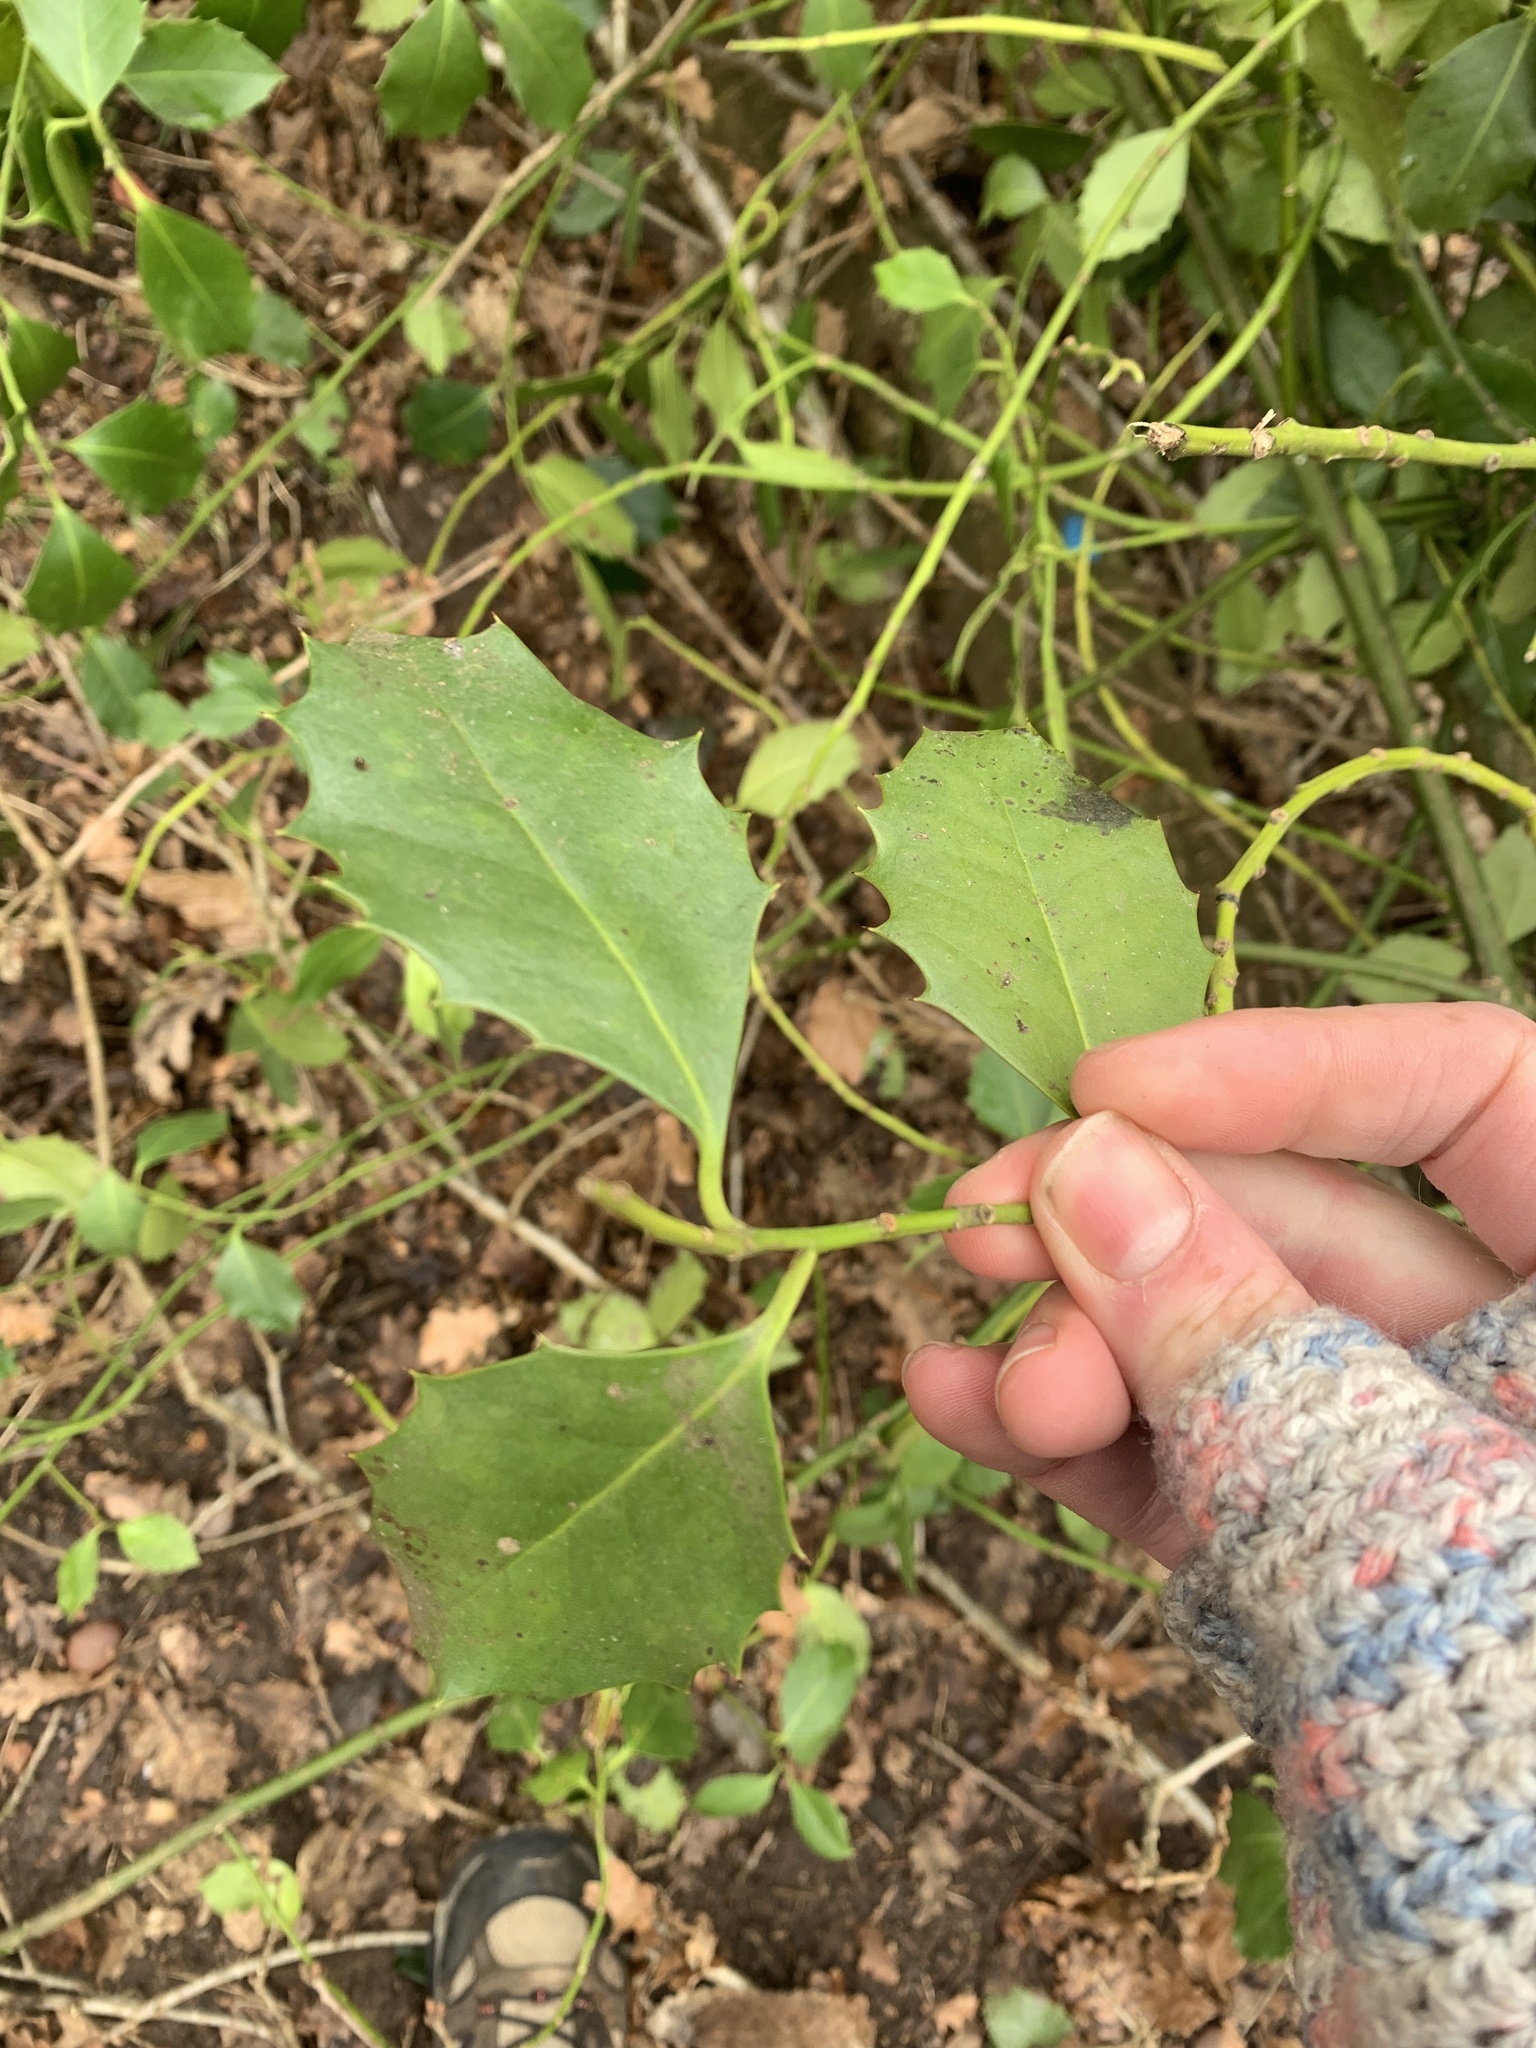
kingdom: Plantae
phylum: Tracheophyta
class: Magnoliopsida
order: Aquifoliales
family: Aquifoliaceae
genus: Ilex
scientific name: Ilex aquifolium
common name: English holly
